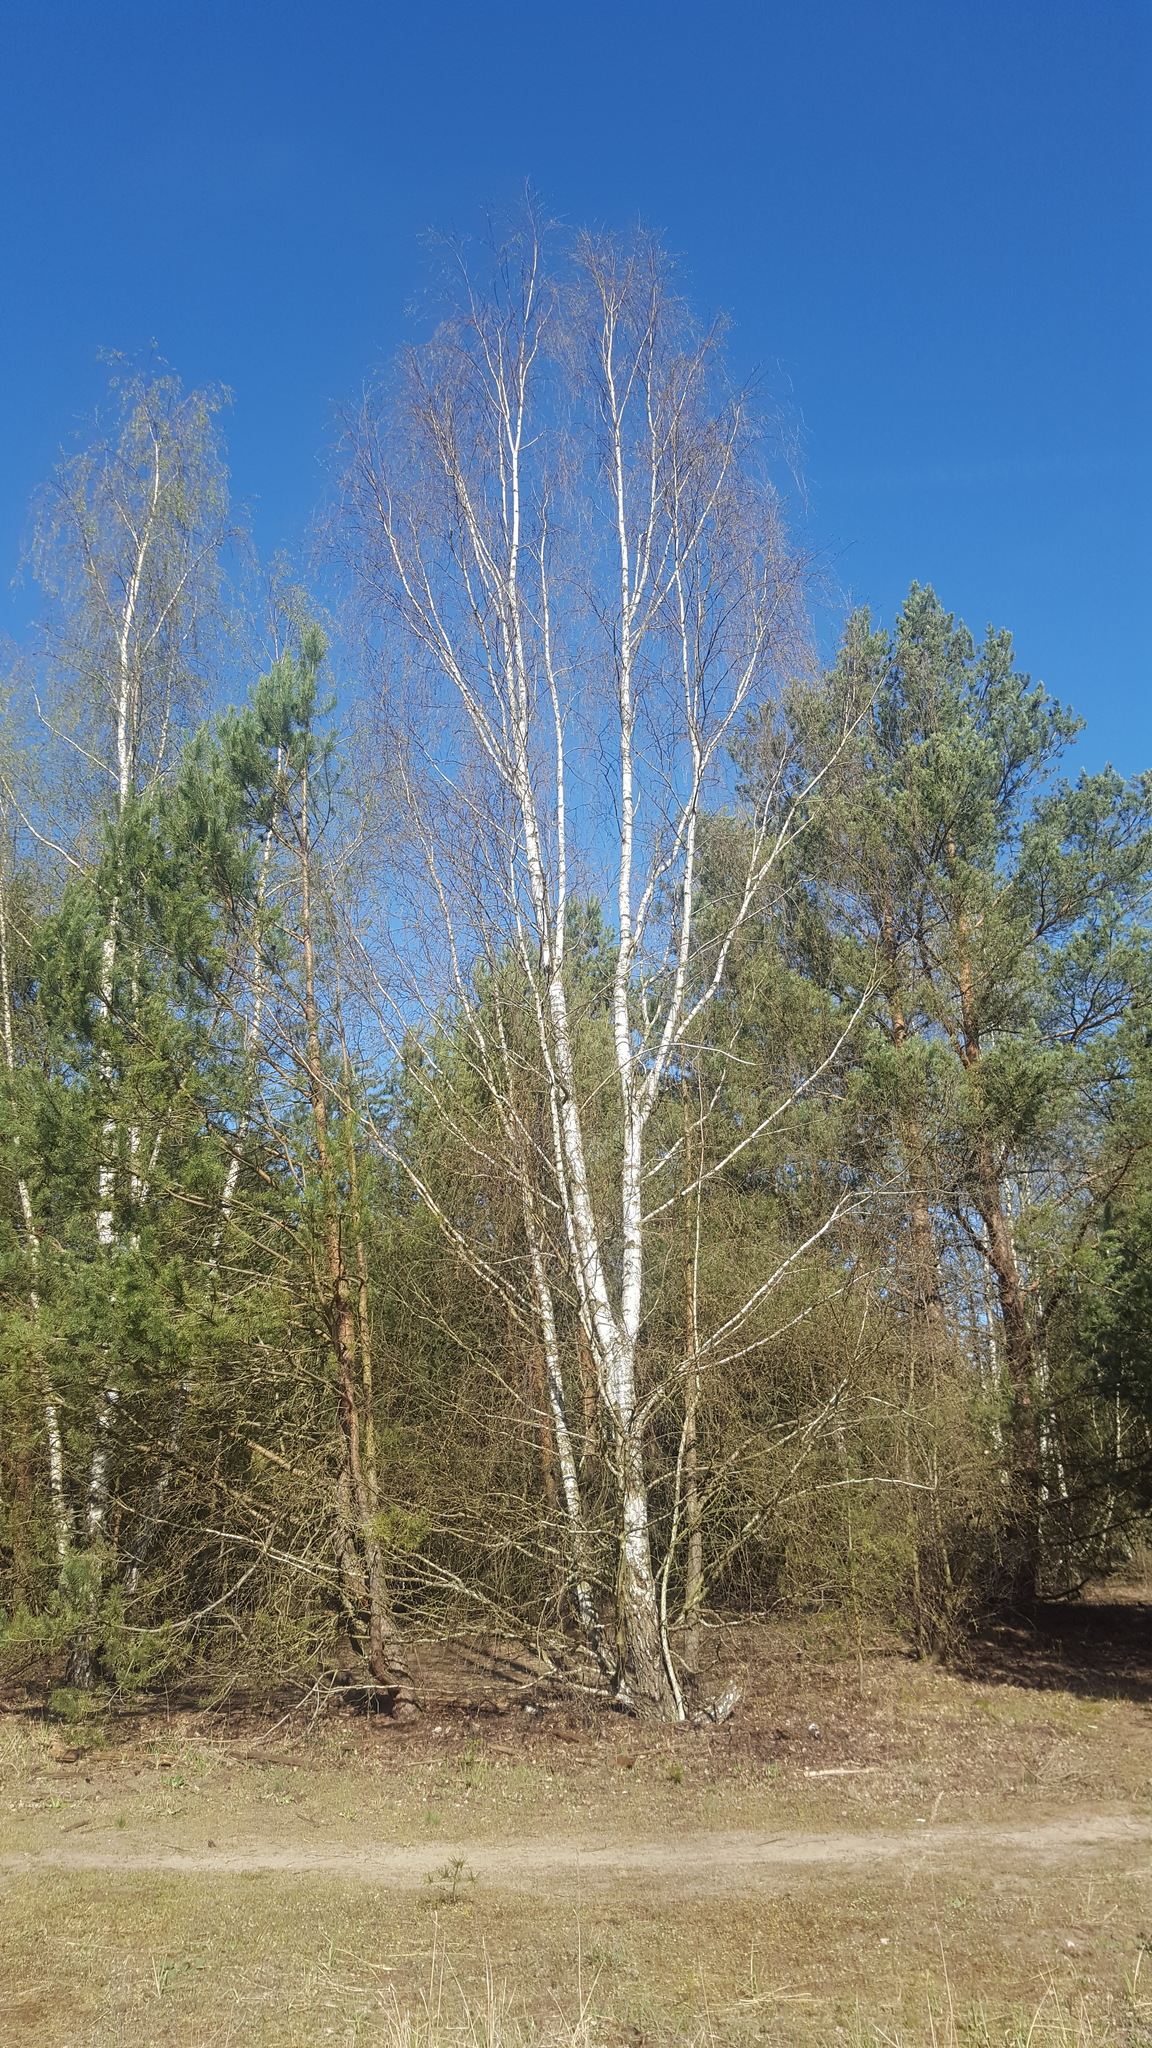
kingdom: Plantae
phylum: Tracheophyta
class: Magnoliopsida
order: Fagales
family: Betulaceae
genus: Betula
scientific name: Betula pendula
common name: Silver birch
